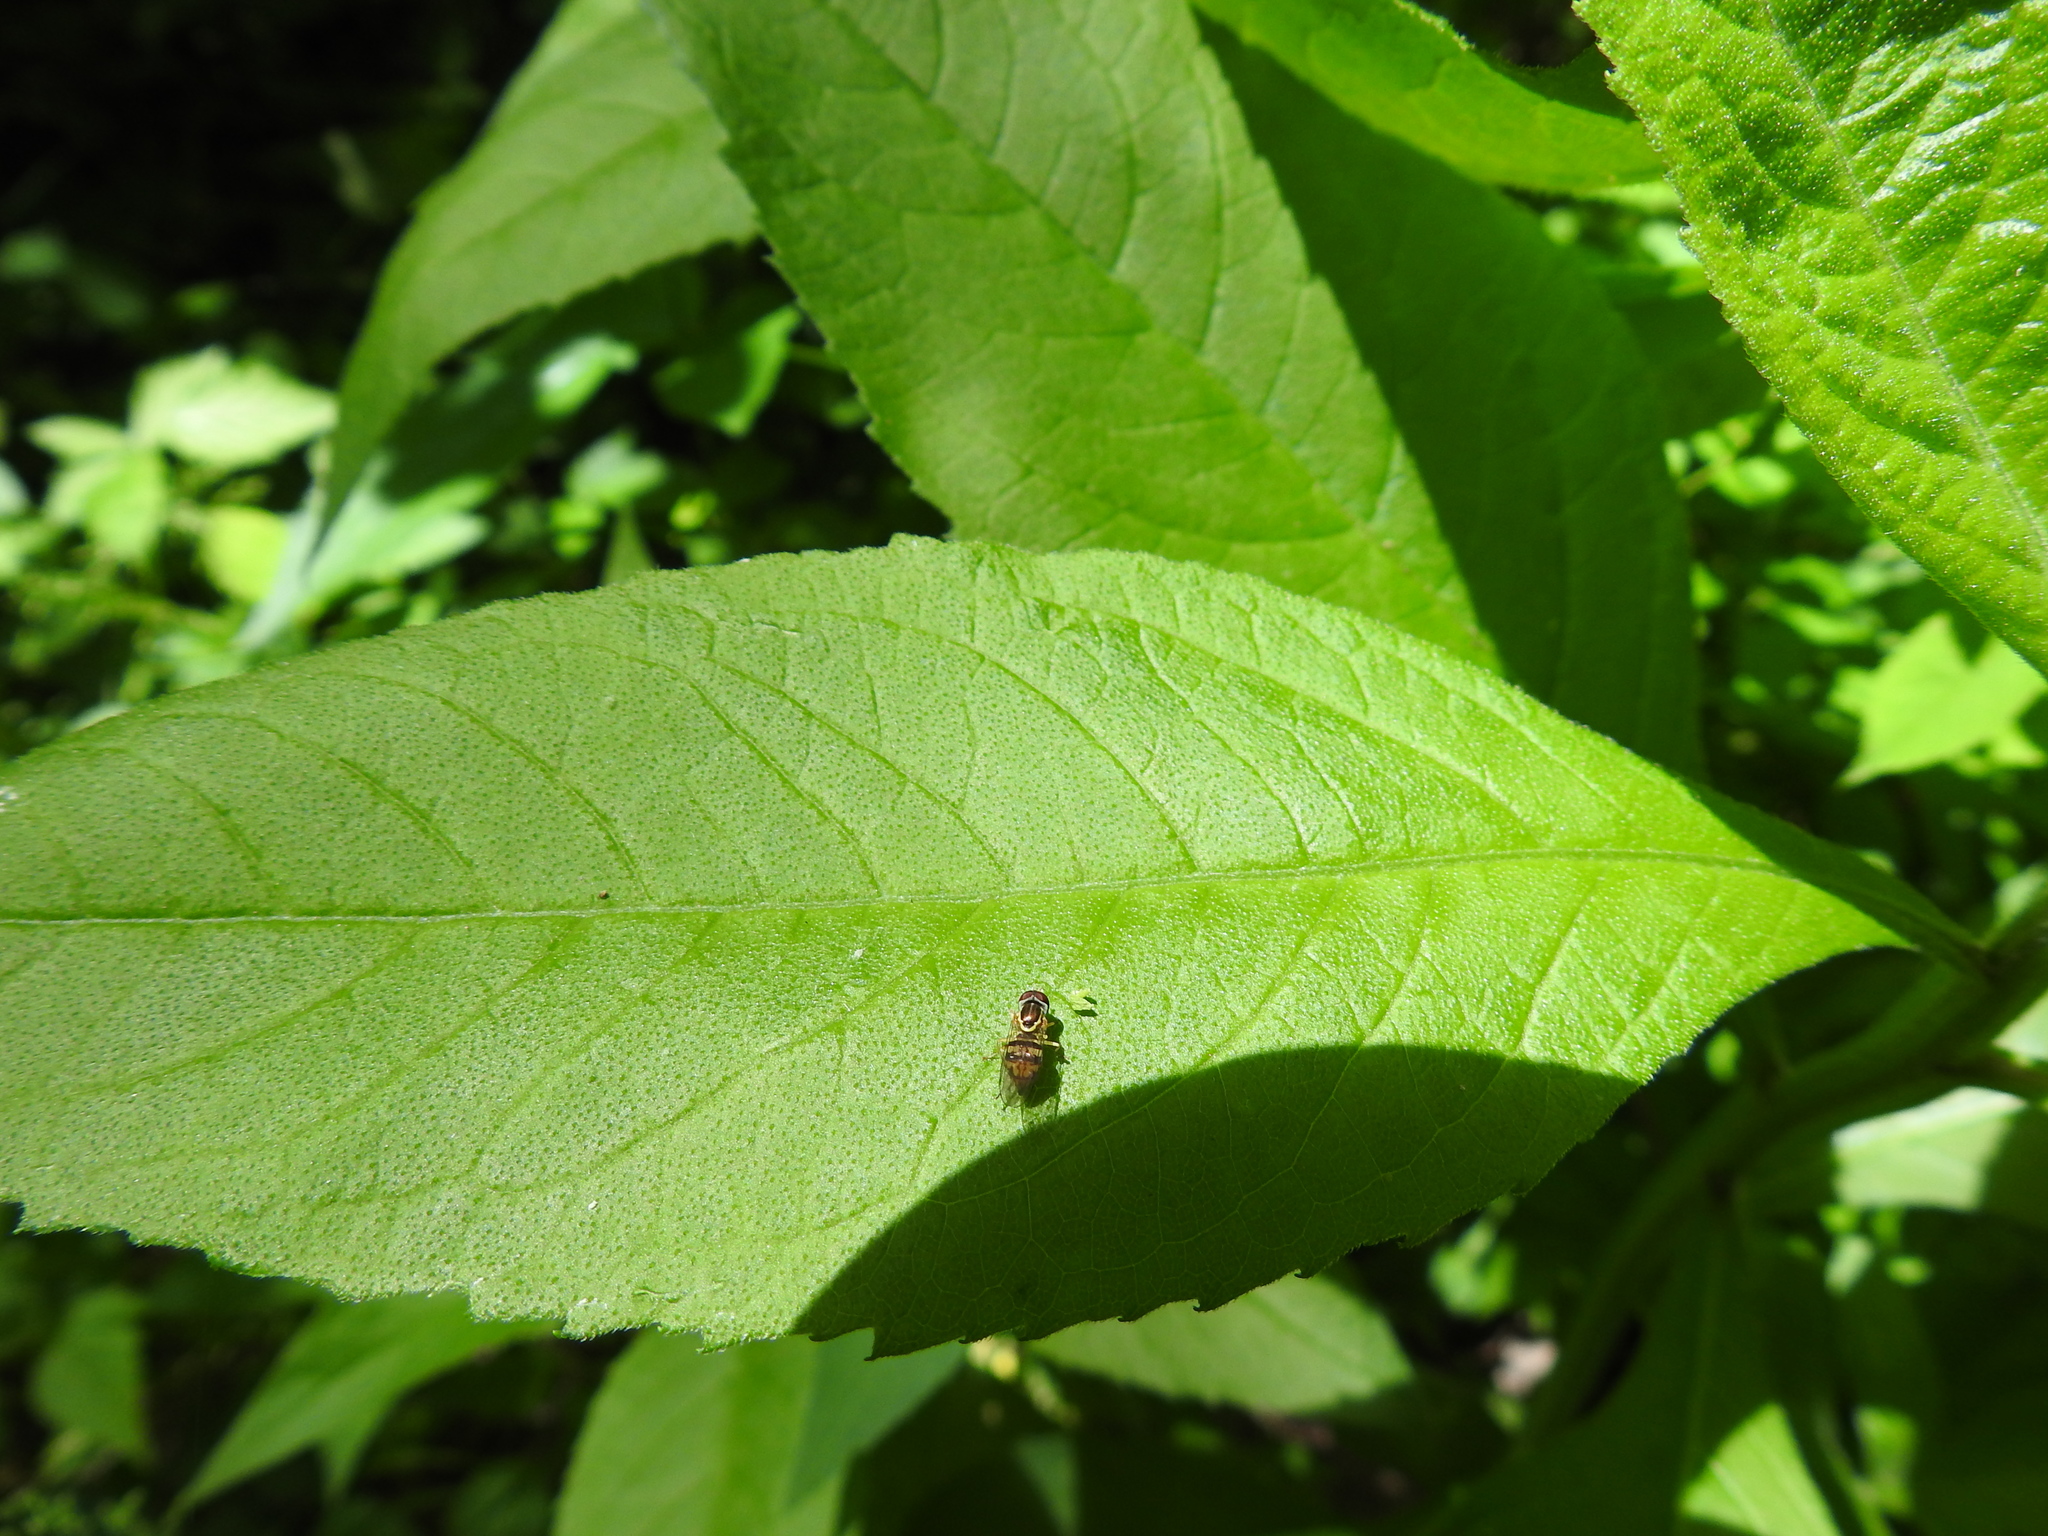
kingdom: Animalia
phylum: Arthropoda
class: Insecta
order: Diptera
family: Syrphidae
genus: Toxomerus
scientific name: Toxomerus geminatus
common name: Eastern calligrapher
